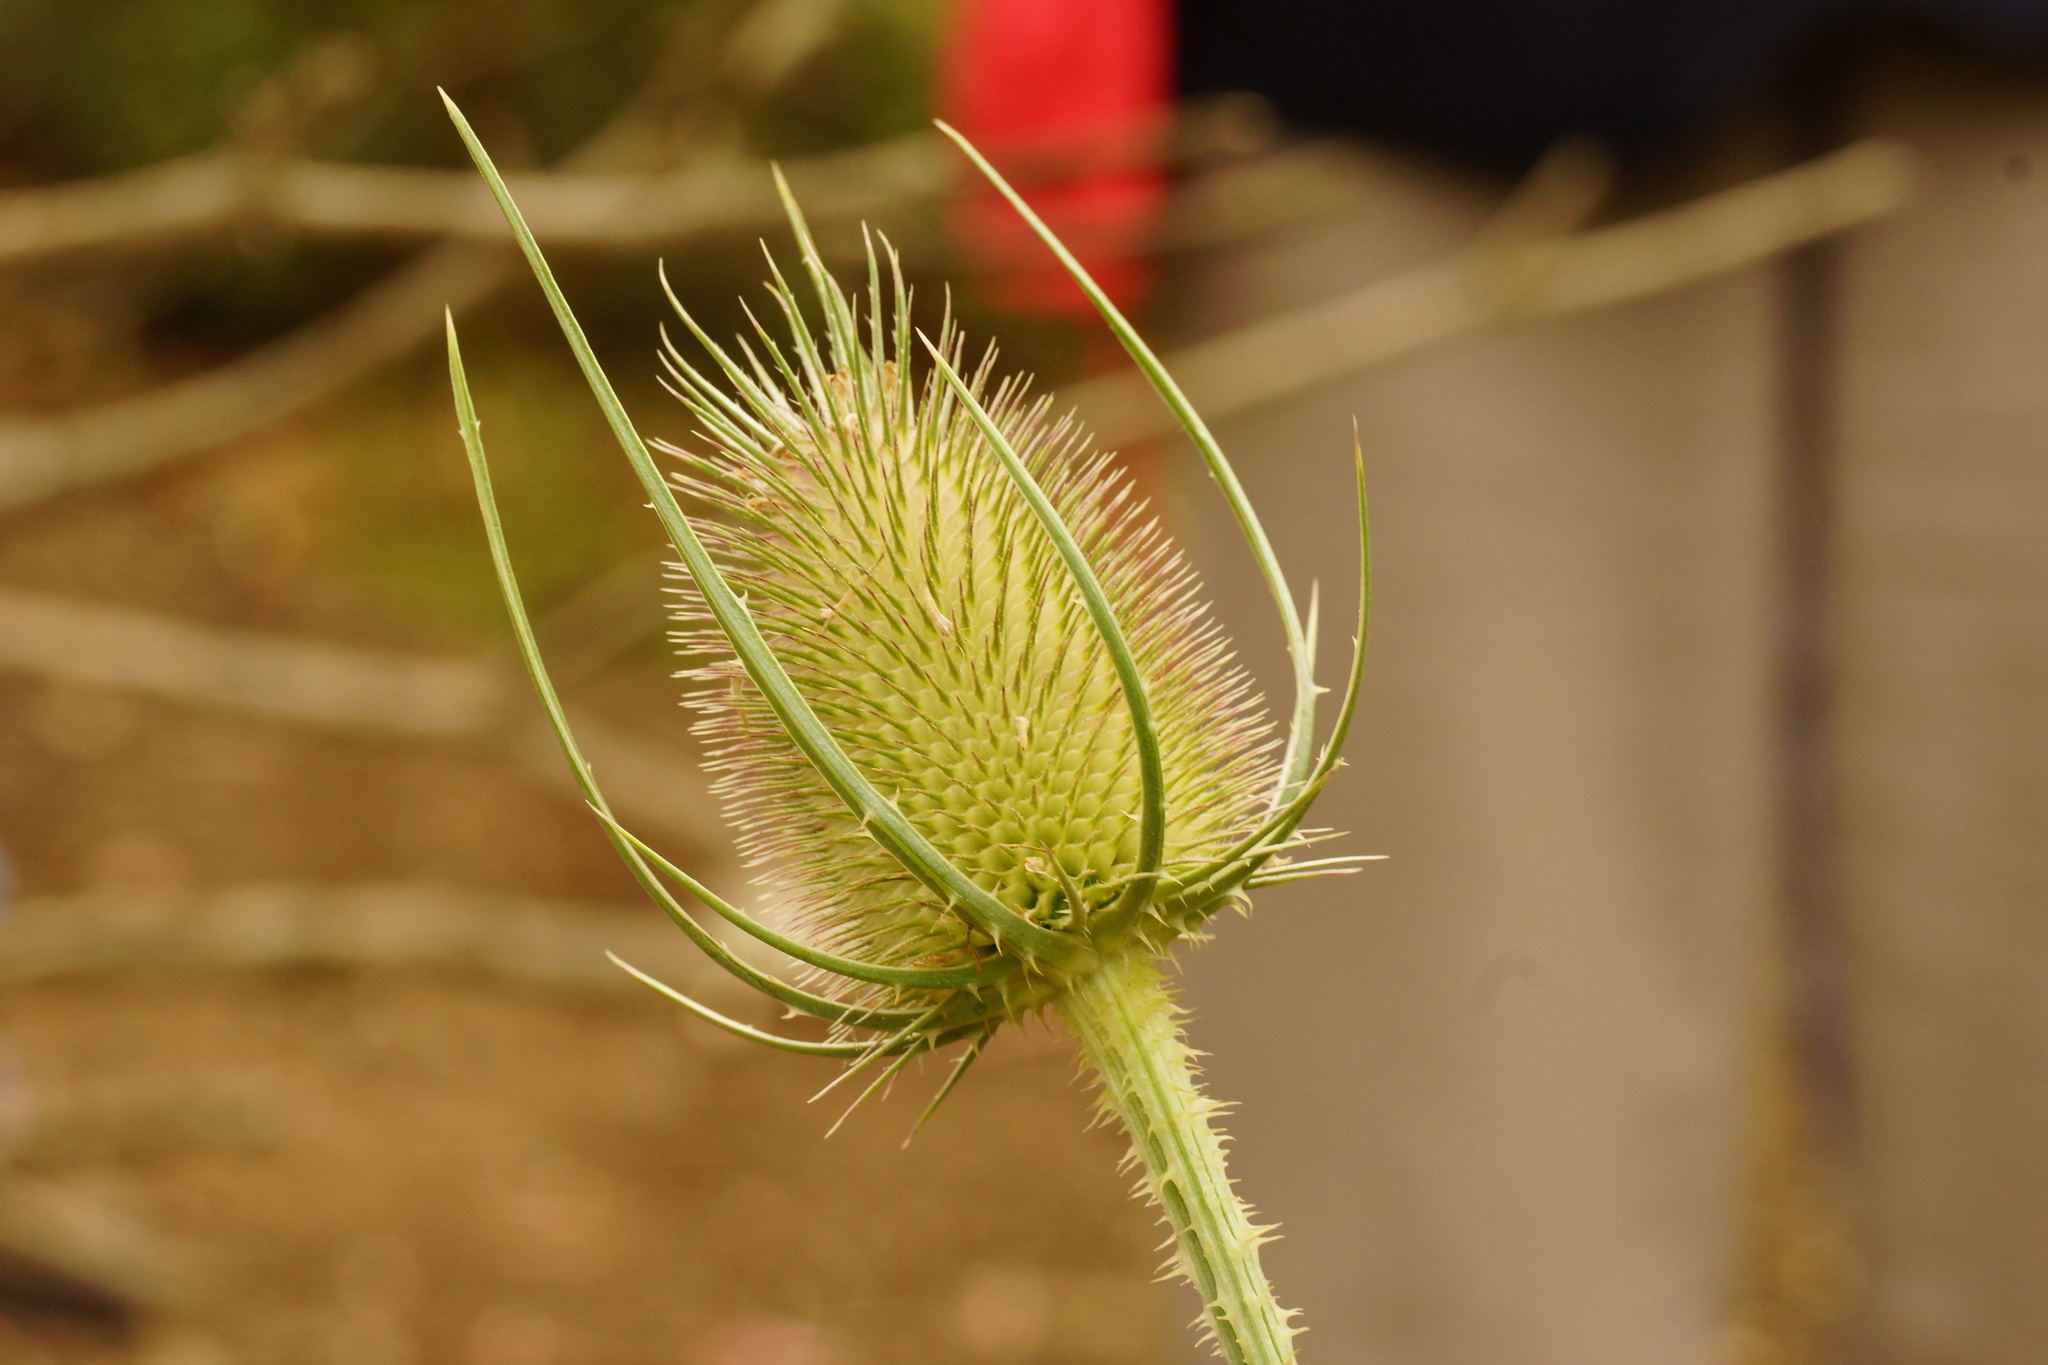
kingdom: Plantae
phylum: Tracheophyta
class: Magnoliopsida
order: Dipsacales
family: Caprifoliaceae
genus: Dipsacus
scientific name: Dipsacus fullonum
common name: Teasel
